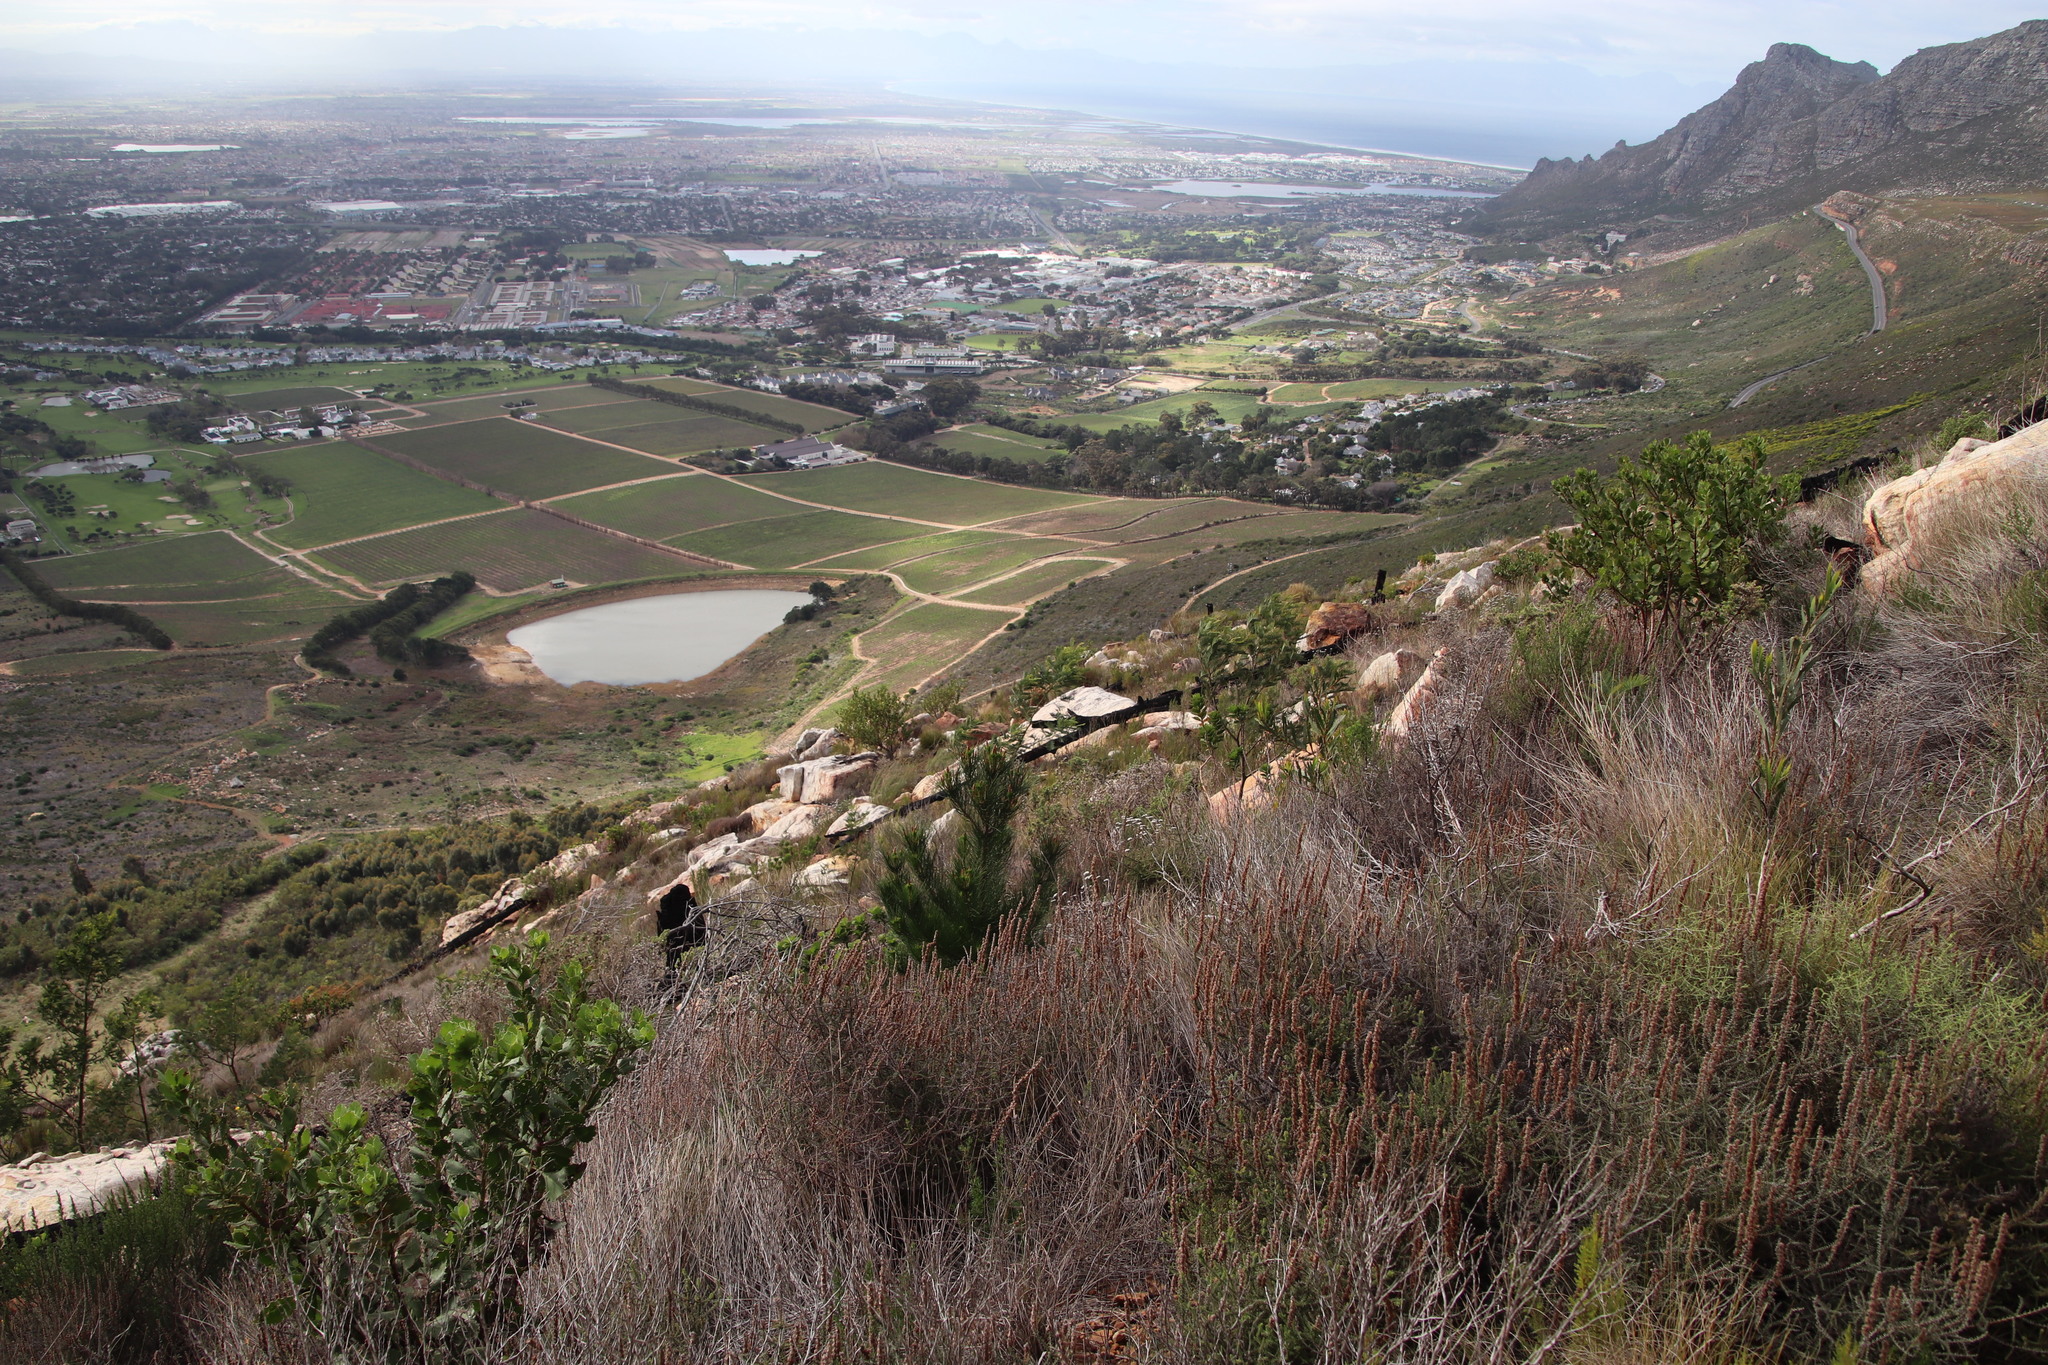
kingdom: Plantae
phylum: Tracheophyta
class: Pinopsida
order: Pinales
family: Pinaceae
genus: Pinus
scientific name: Pinus radiata
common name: Monterey pine
